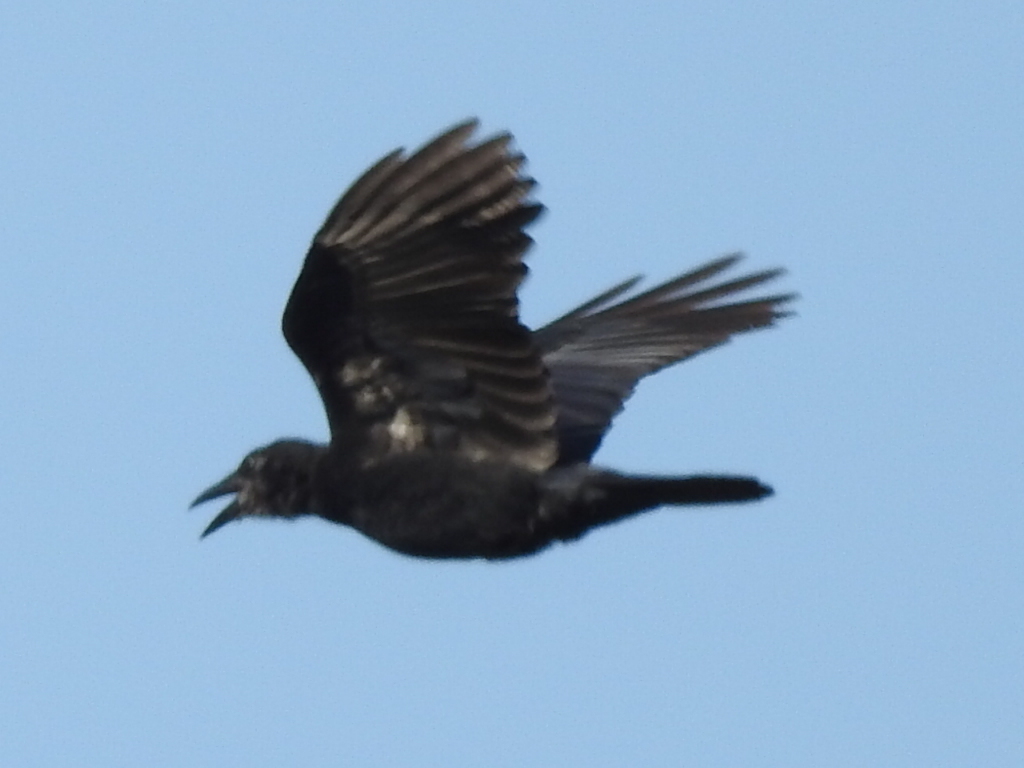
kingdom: Animalia
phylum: Chordata
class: Aves
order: Passeriformes
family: Corvidae
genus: Corvus
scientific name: Corvus brachyrhynchos
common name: American crow
